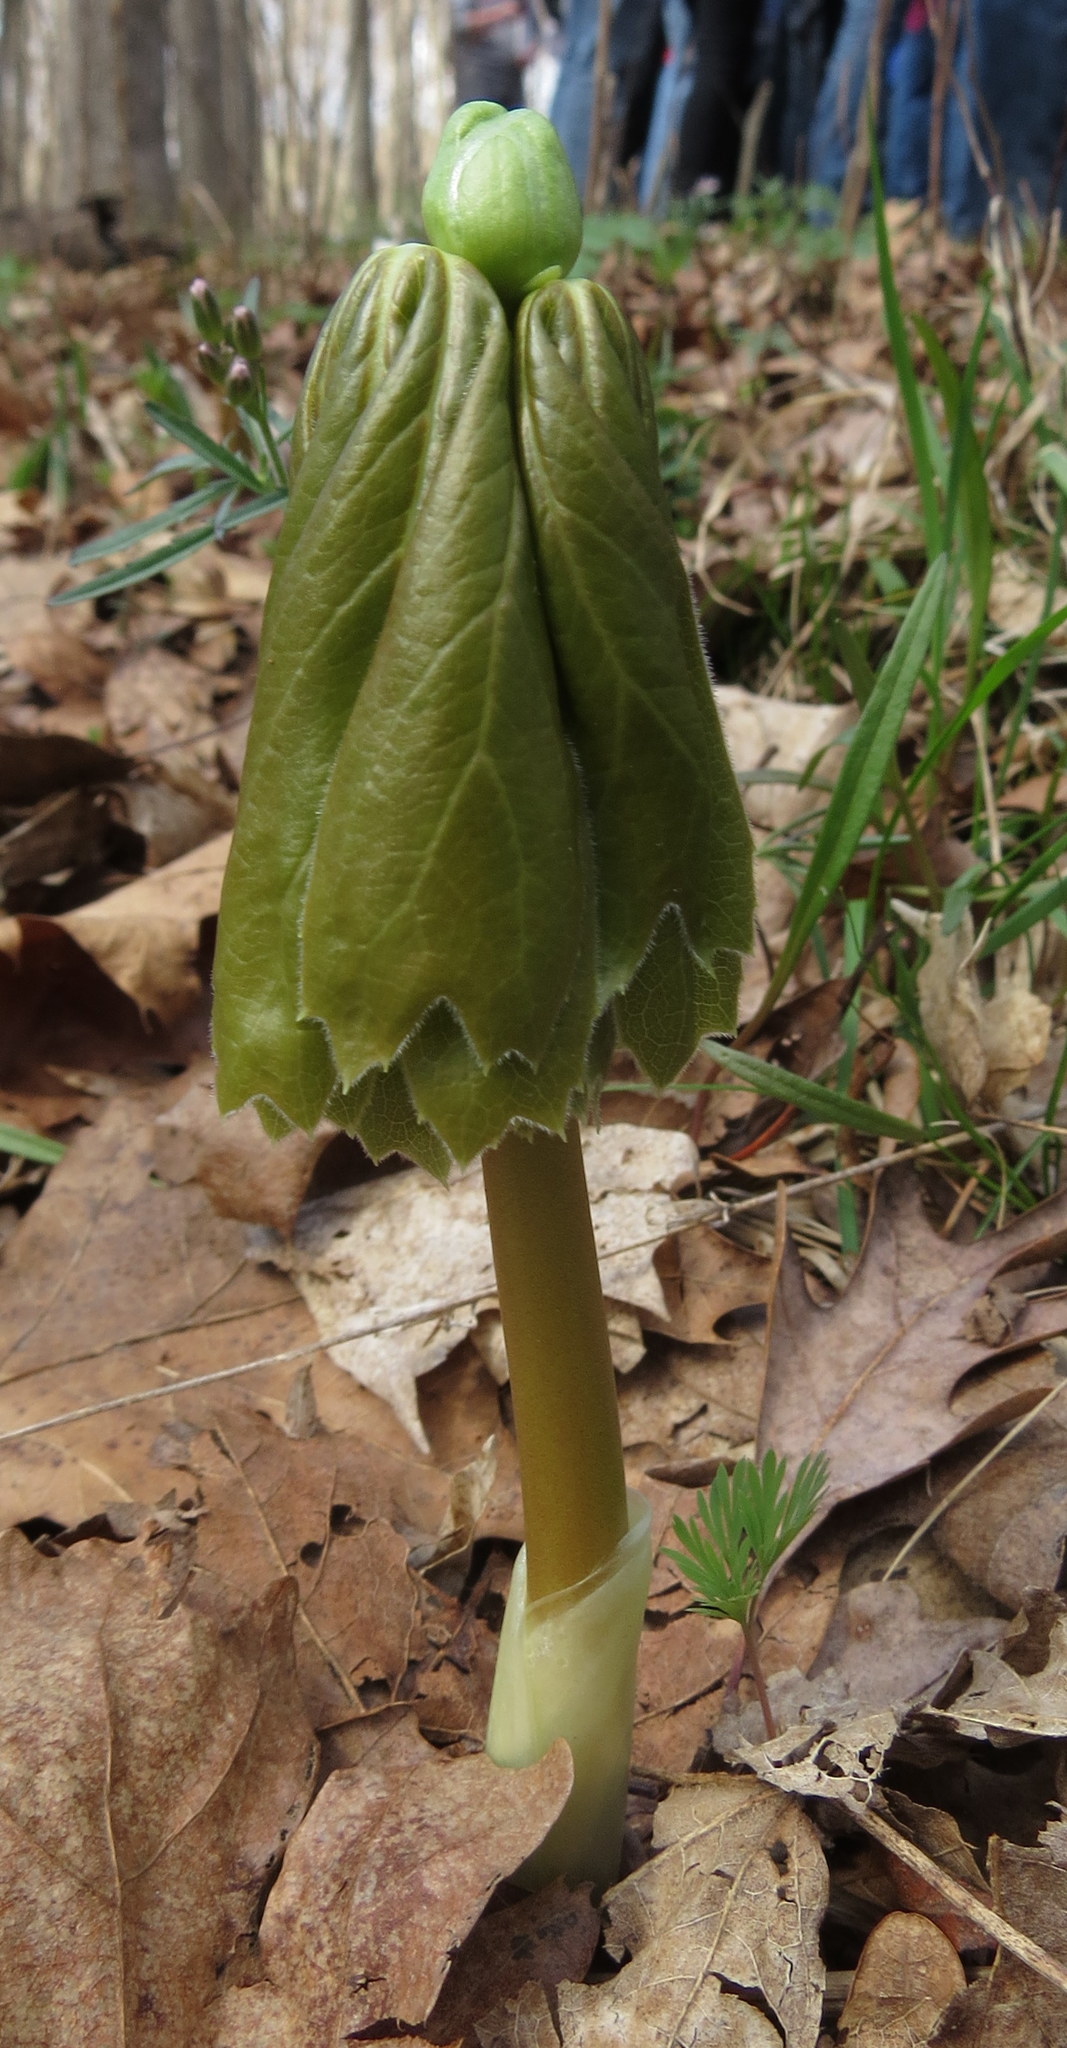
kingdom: Plantae
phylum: Tracheophyta
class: Magnoliopsida
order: Ranunculales
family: Berberidaceae
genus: Podophyllum
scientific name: Podophyllum peltatum
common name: Wild mandrake
